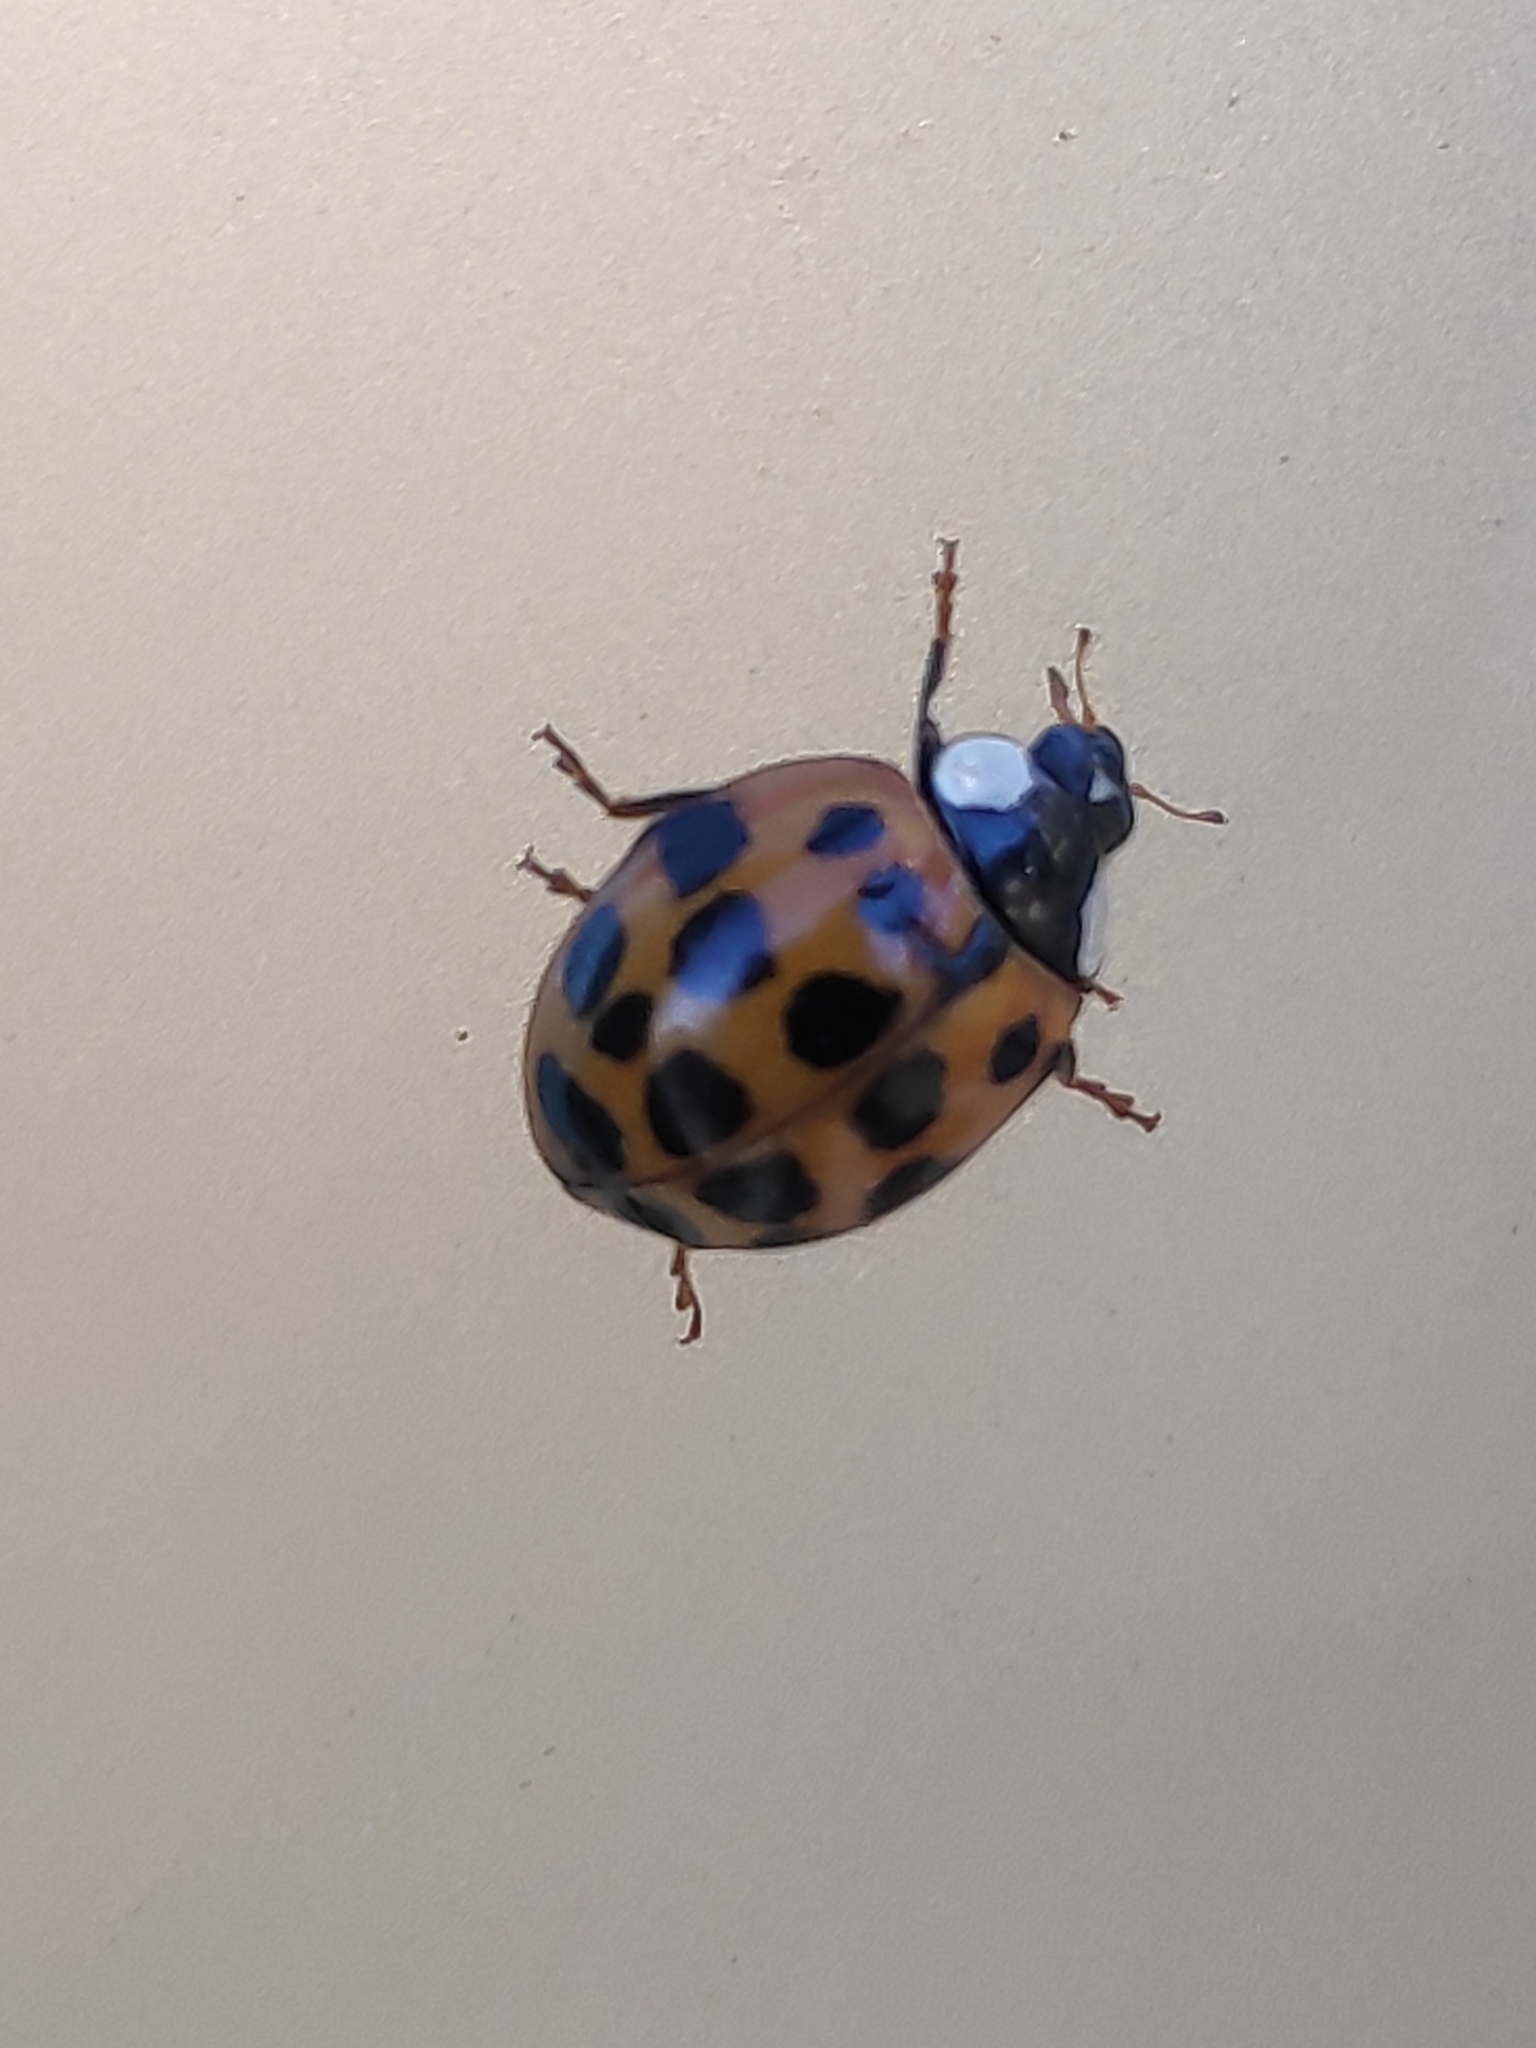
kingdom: Animalia
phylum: Arthropoda
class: Insecta
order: Coleoptera
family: Coccinellidae
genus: Harmonia
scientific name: Harmonia axyridis
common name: Harlequin ladybird
